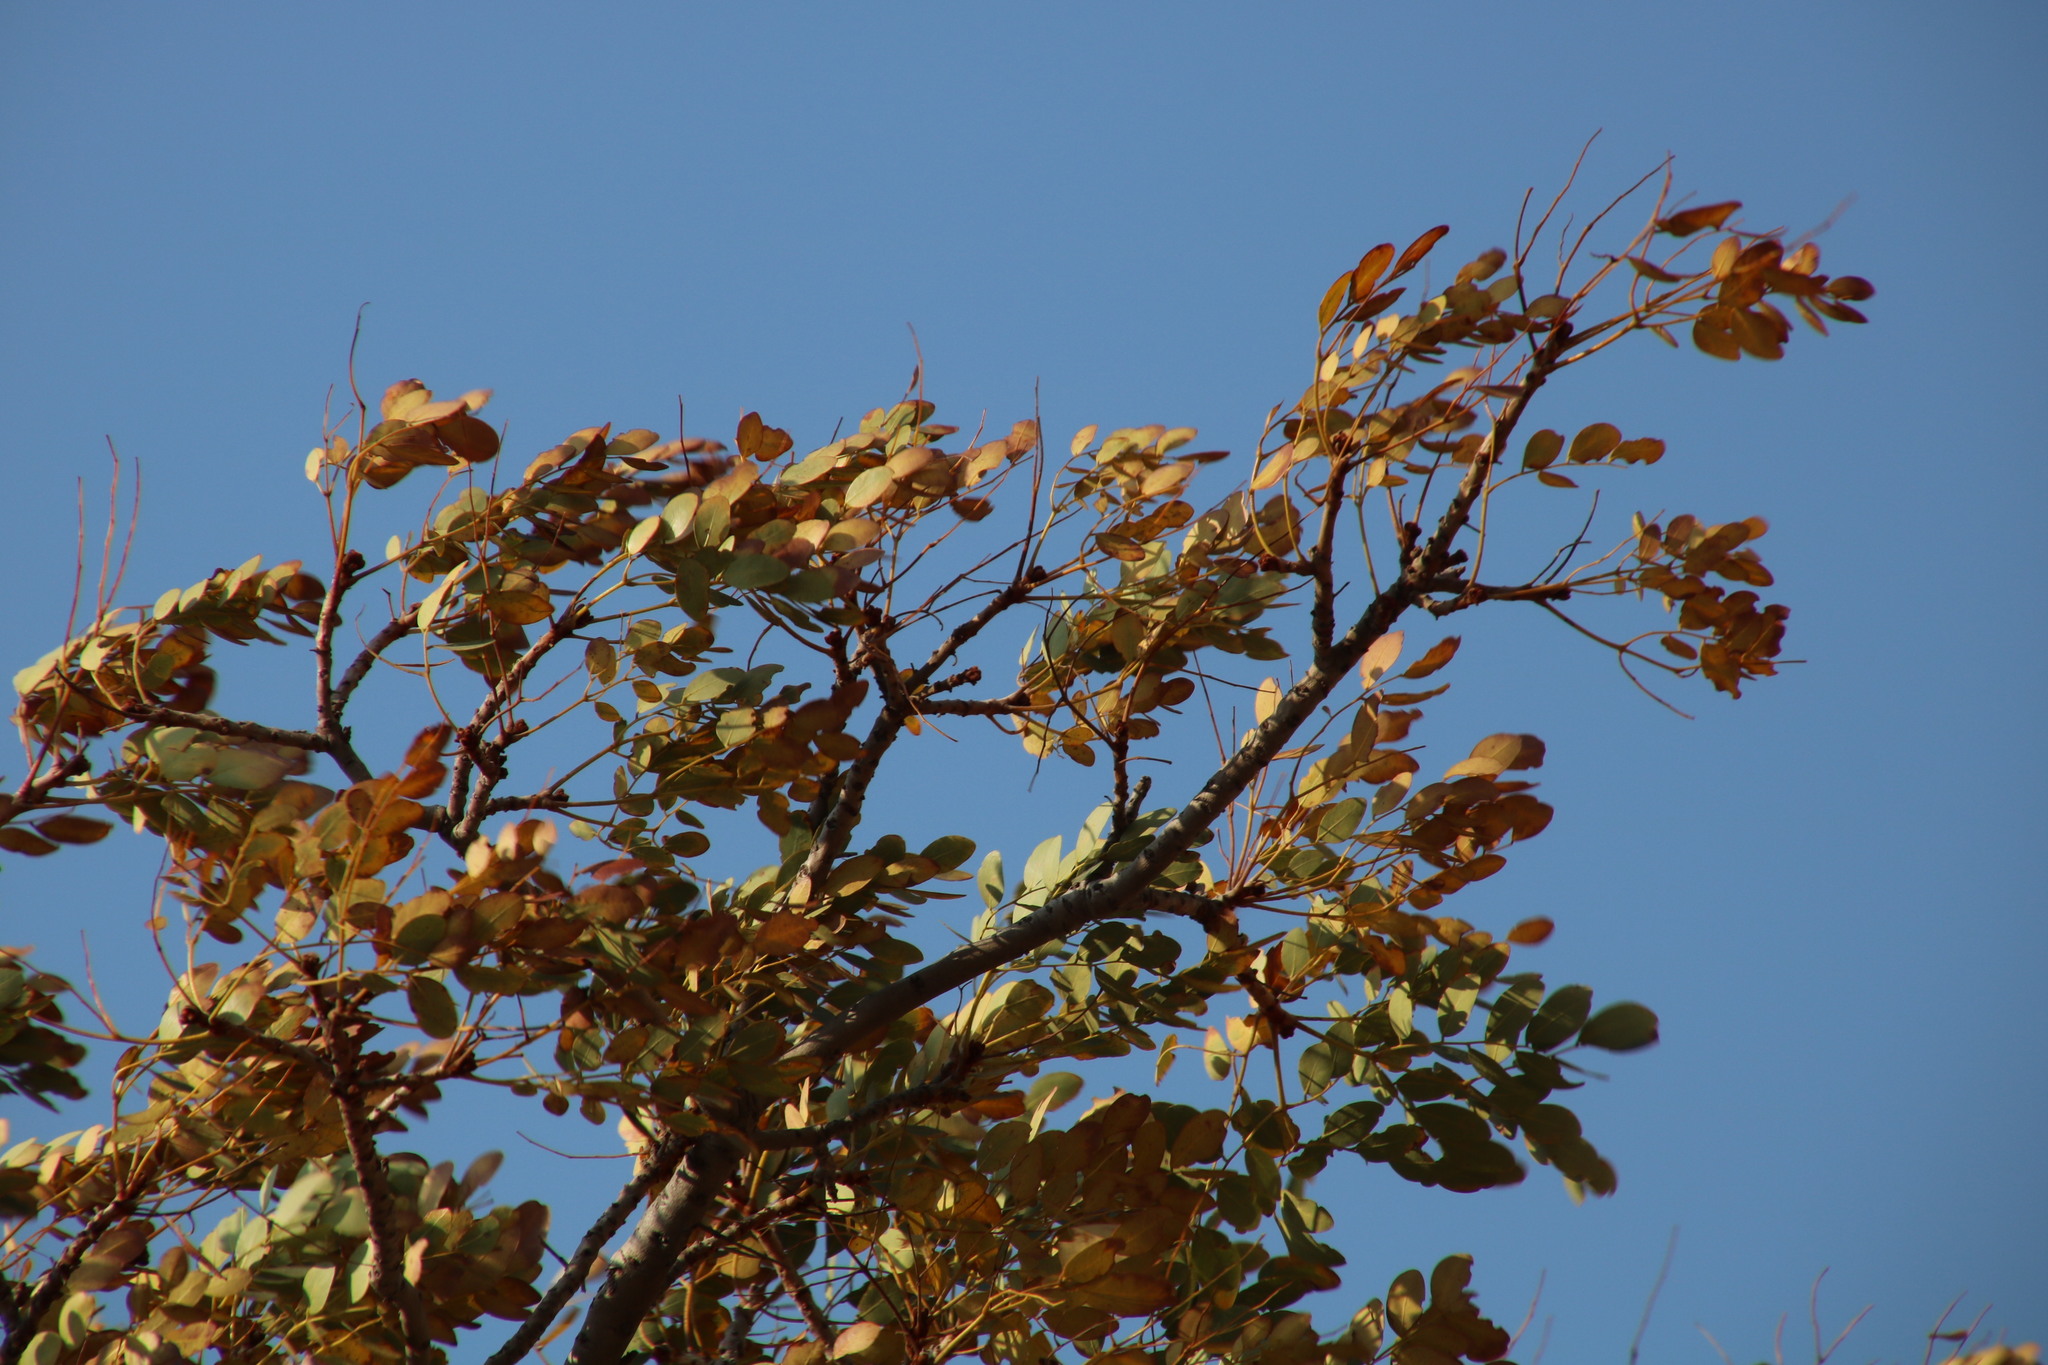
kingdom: Plantae
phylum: Tracheophyta
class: Magnoliopsida
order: Fabales
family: Fabaceae
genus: Burkea
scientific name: Burkea africana
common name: Mkalati tree
